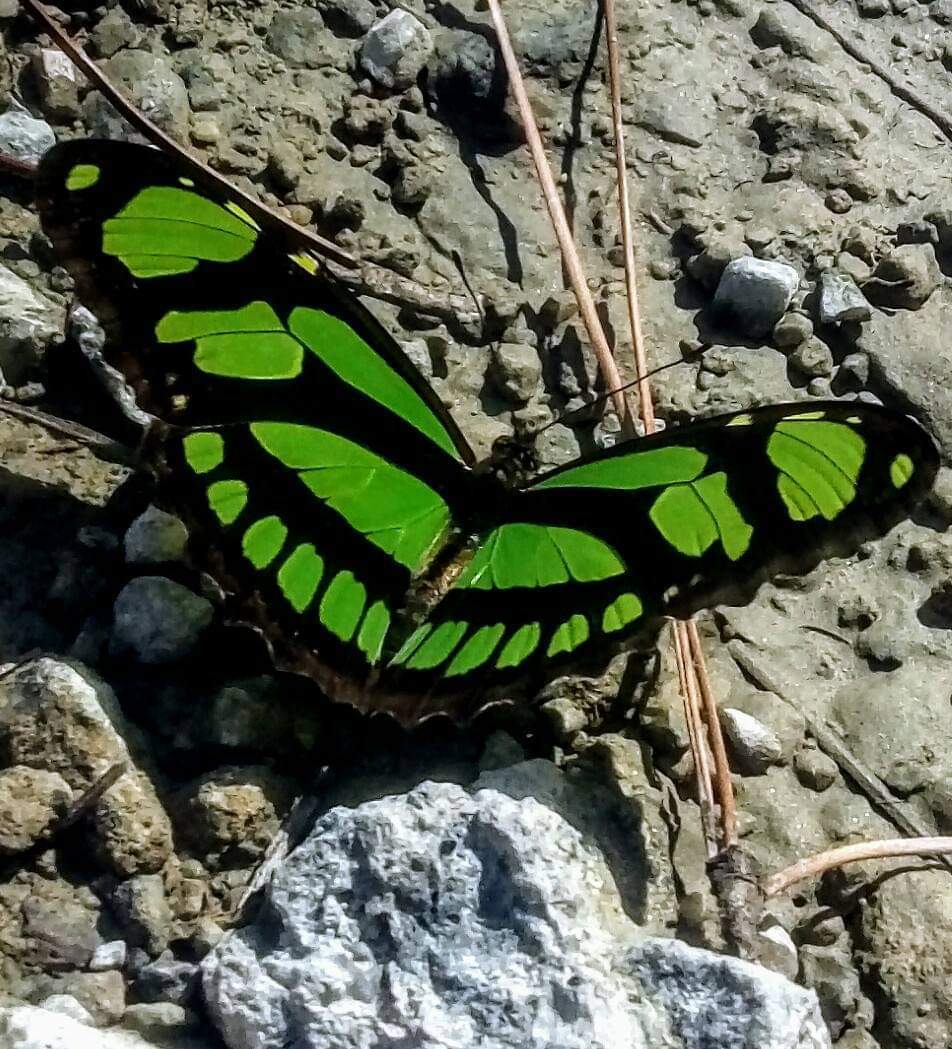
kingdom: Animalia
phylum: Arthropoda
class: Insecta
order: Lepidoptera
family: Nymphalidae
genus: Philaethria
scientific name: Philaethria dido
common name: Scarce bamboo page
